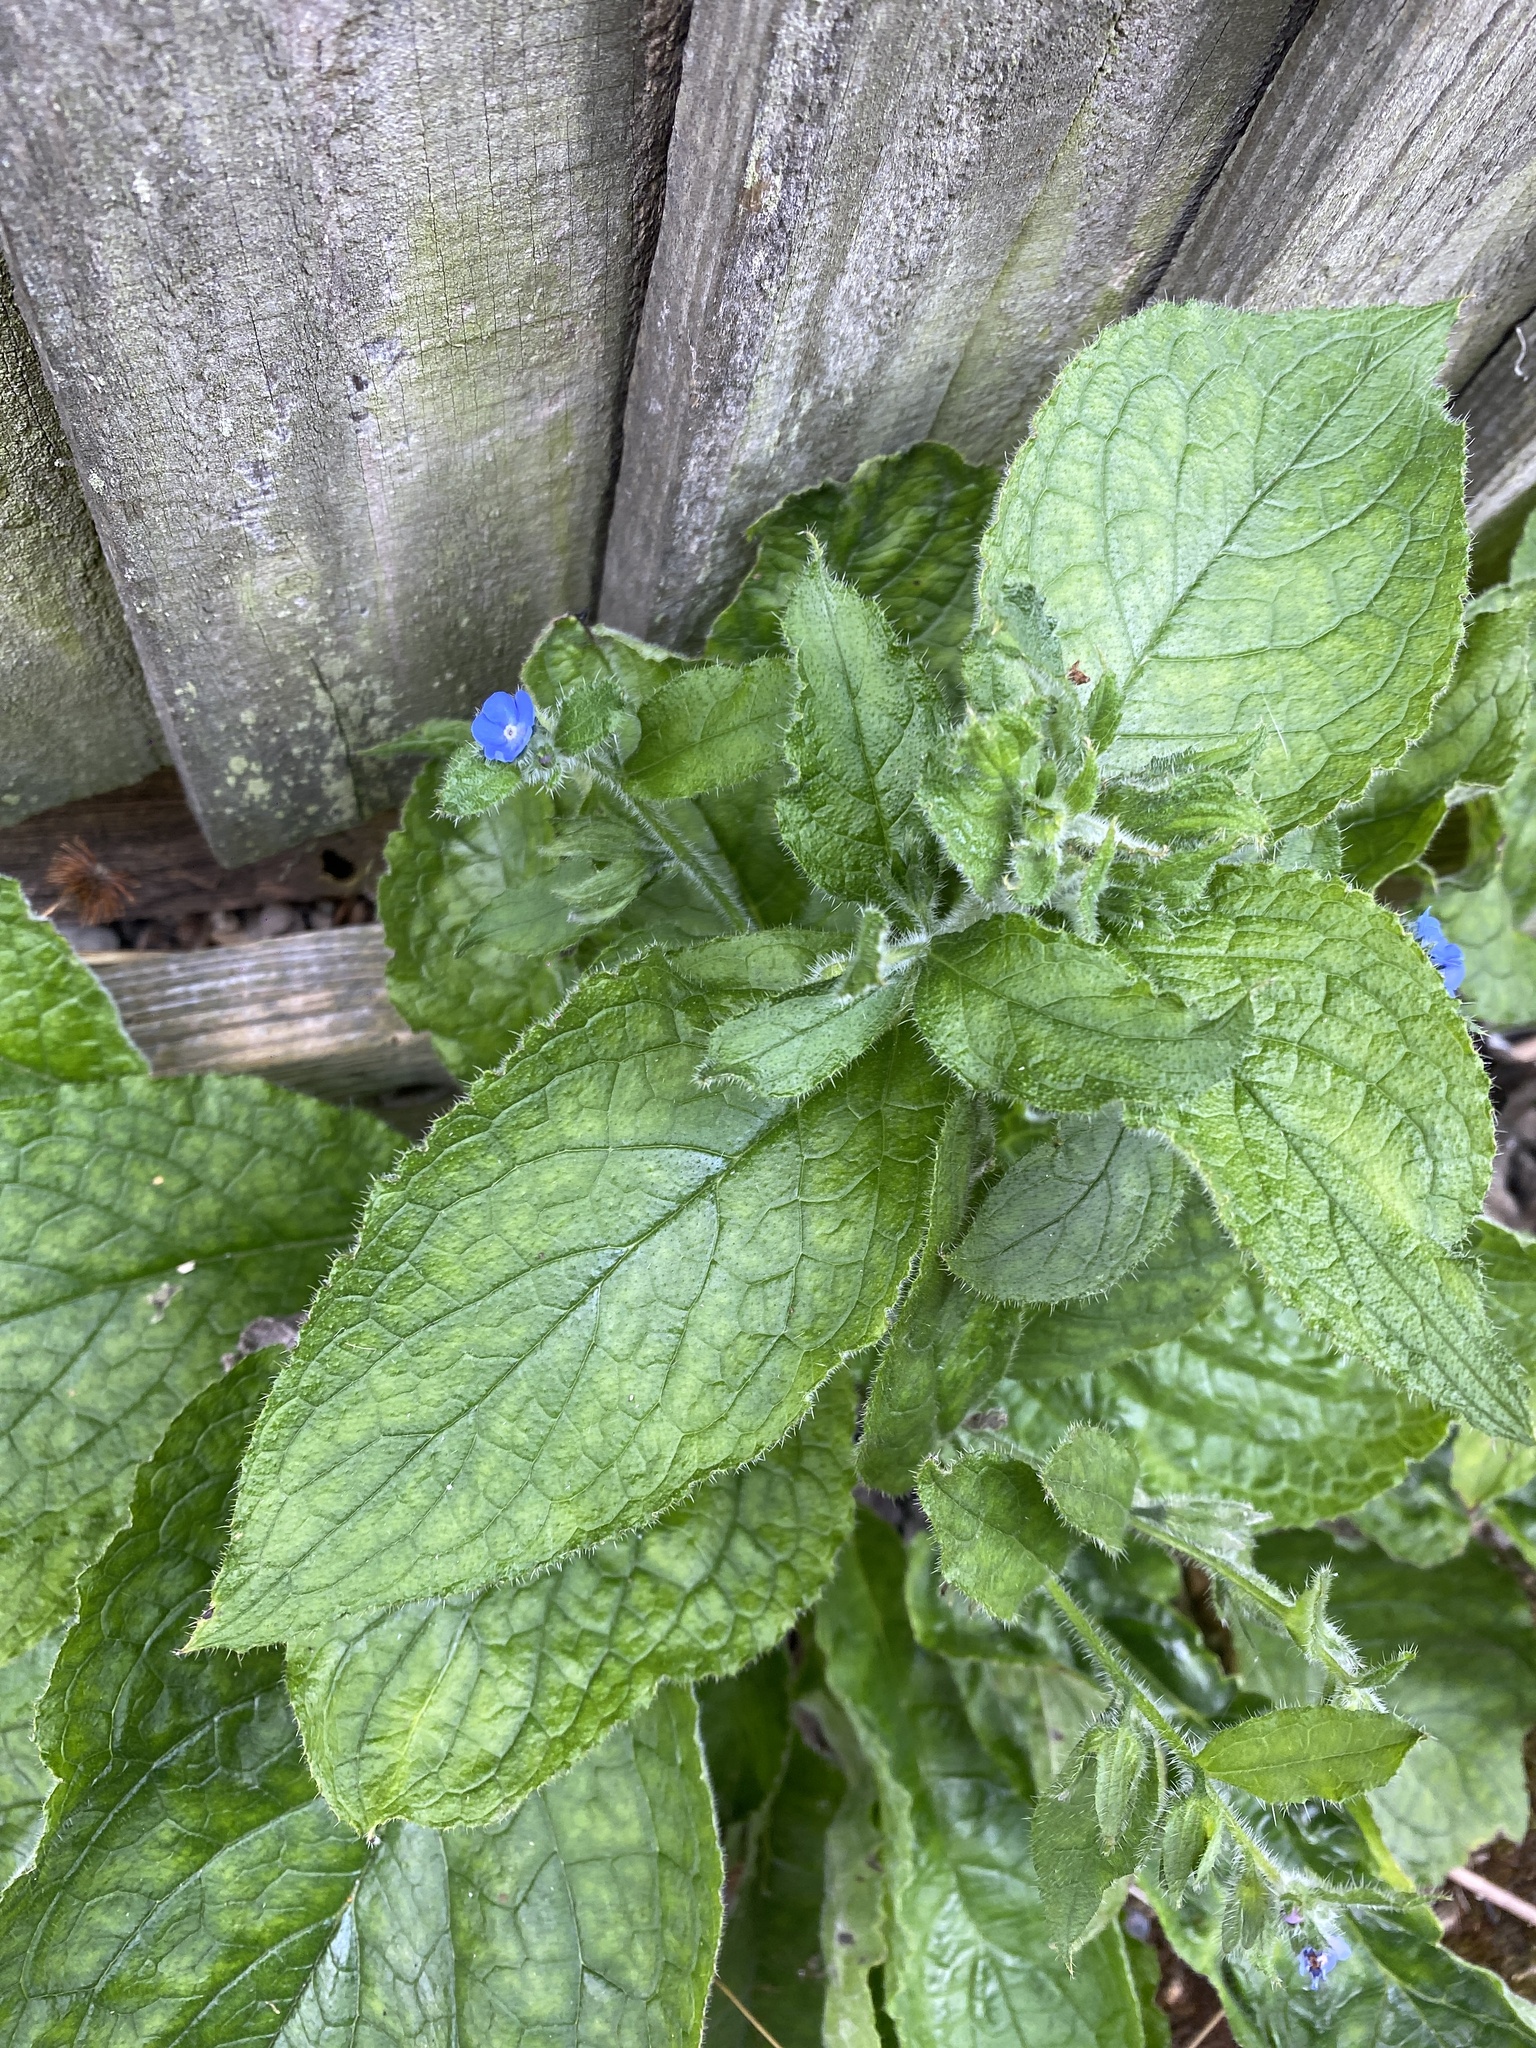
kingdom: Plantae
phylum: Tracheophyta
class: Magnoliopsida
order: Boraginales
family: Boraginaceae
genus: Pentaglottis
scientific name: Pentaglottis sempervirens
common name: Green alkanet
